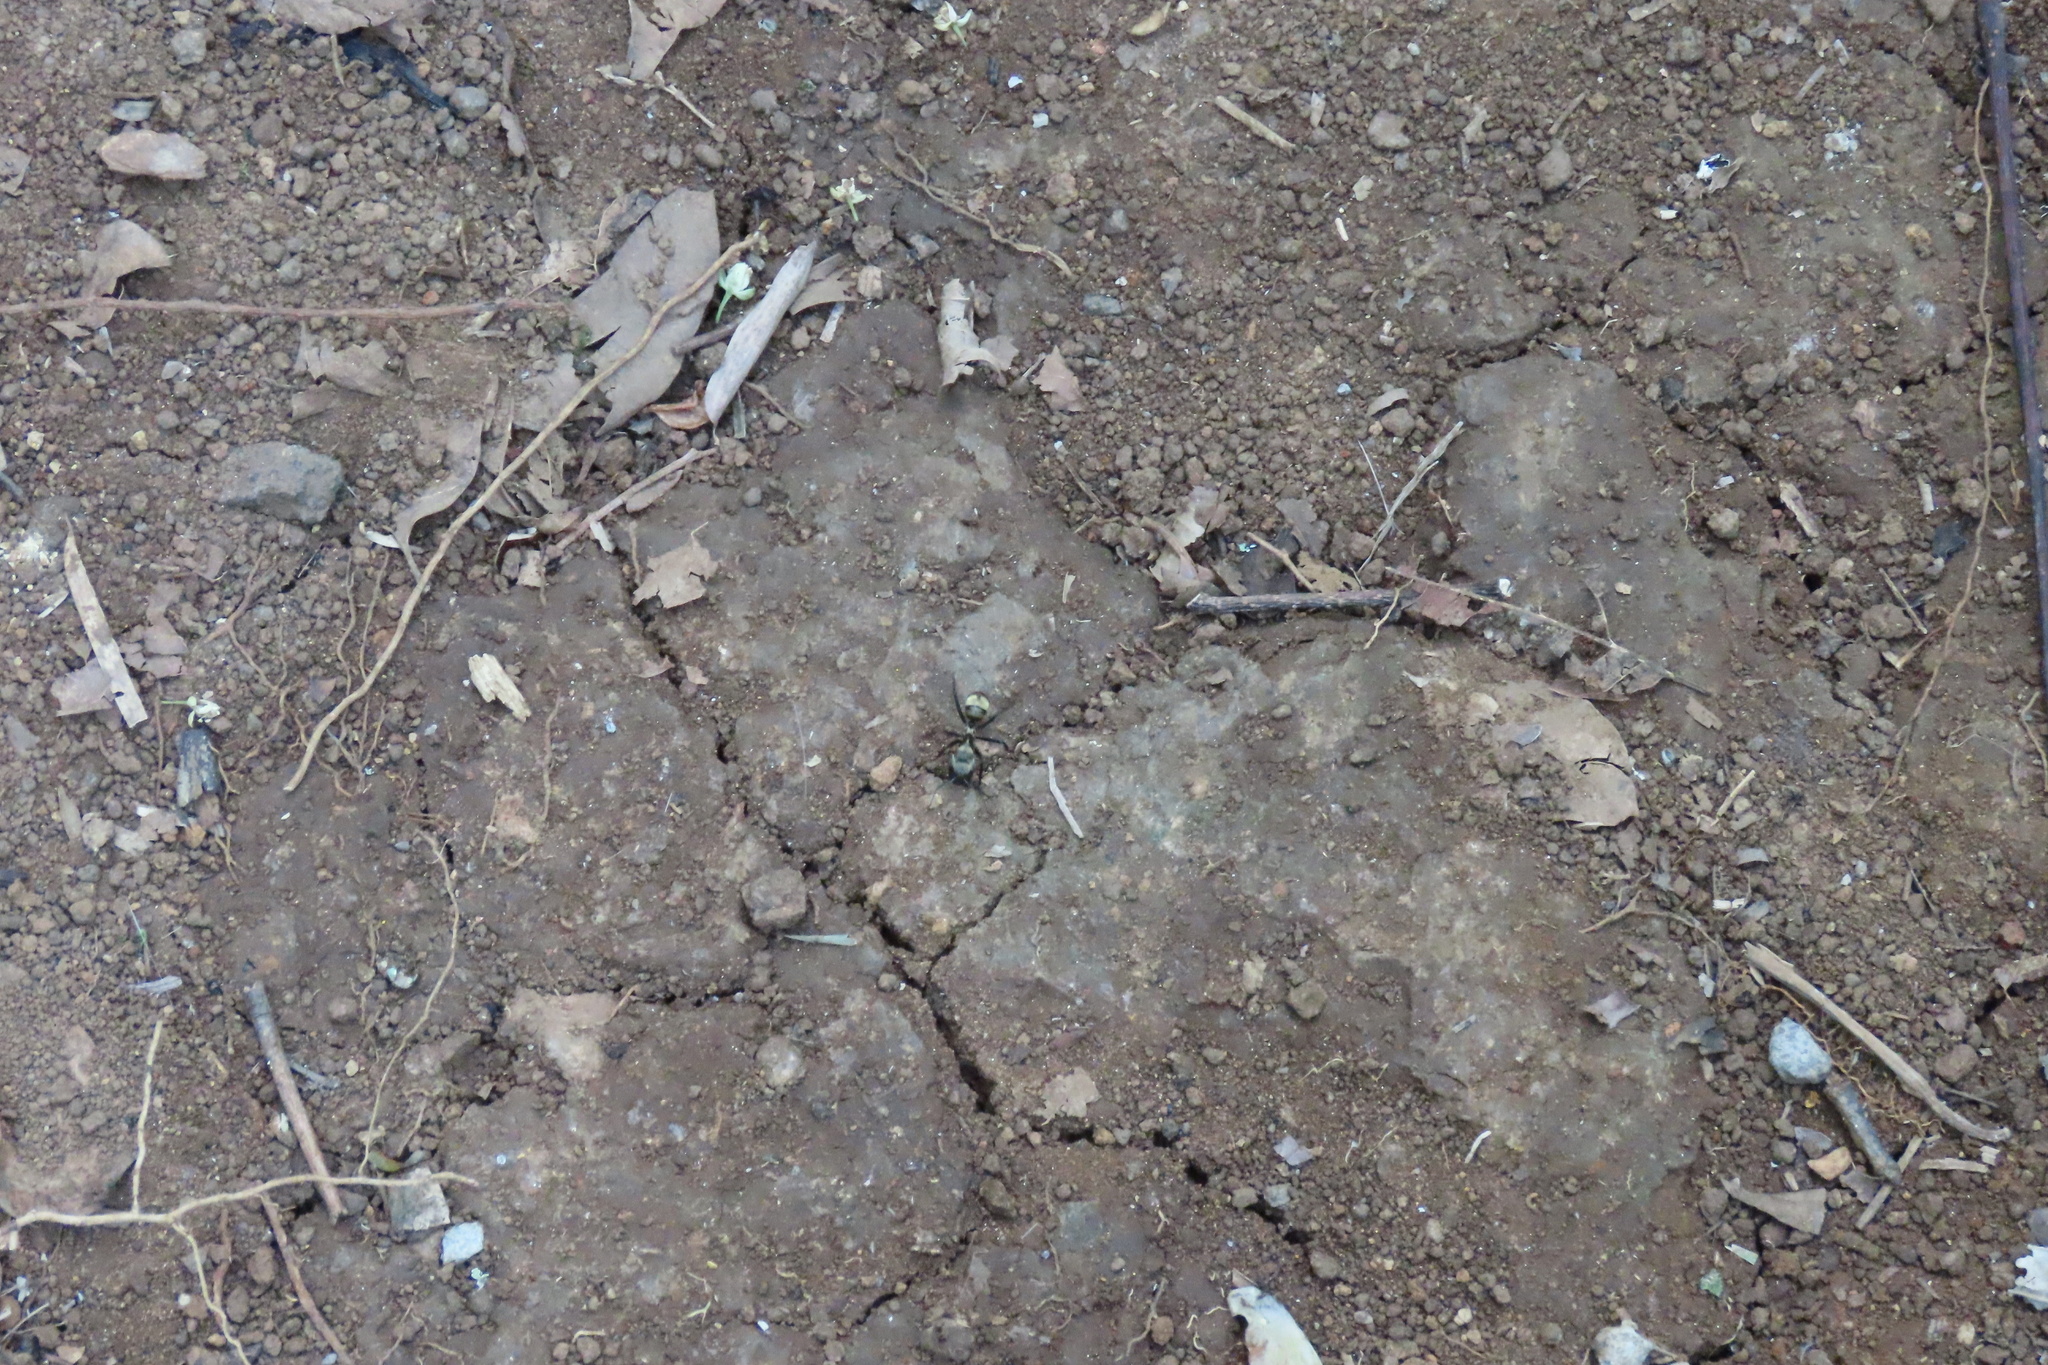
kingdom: Animalia
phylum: Arthropoda
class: Insecta
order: Hymenoptera
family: Formicidae
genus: Camponotus
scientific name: Camponotus sericeiventris
